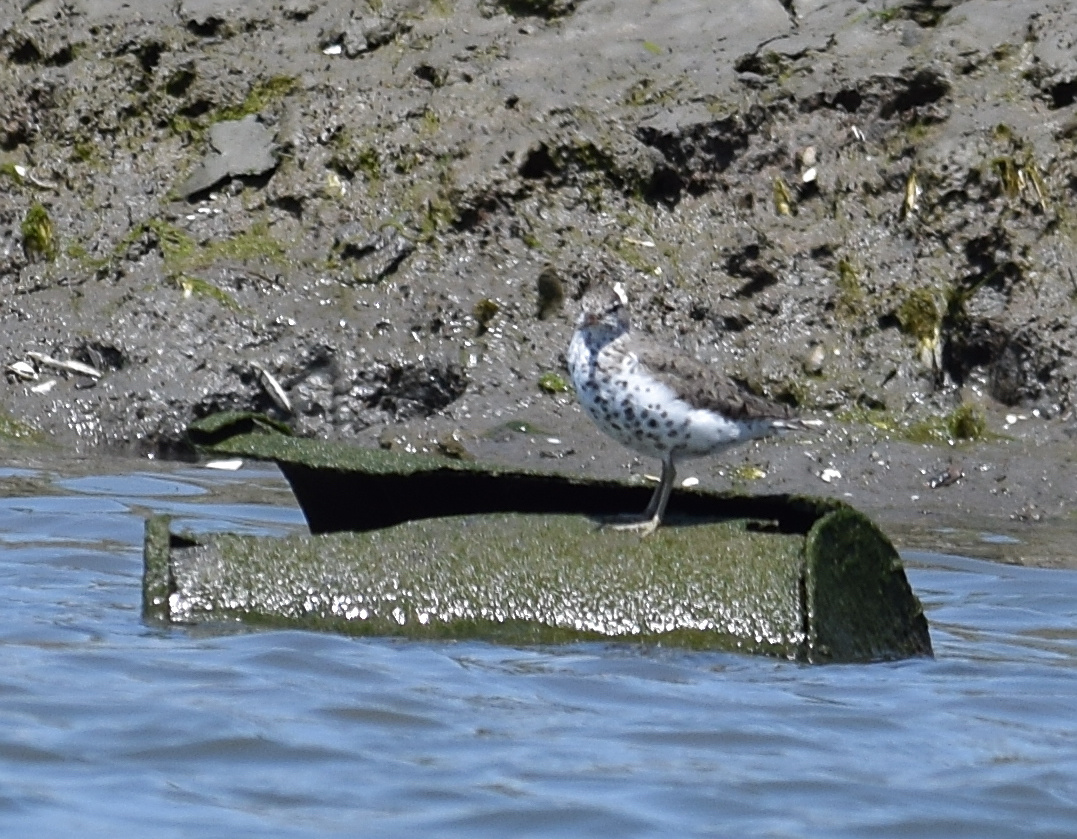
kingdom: Animalia
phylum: Chordata
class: Aves
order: Charadriiformes
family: Scolopacidae
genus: Actitis
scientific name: Actitis macularius
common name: Spotted sandpiper
